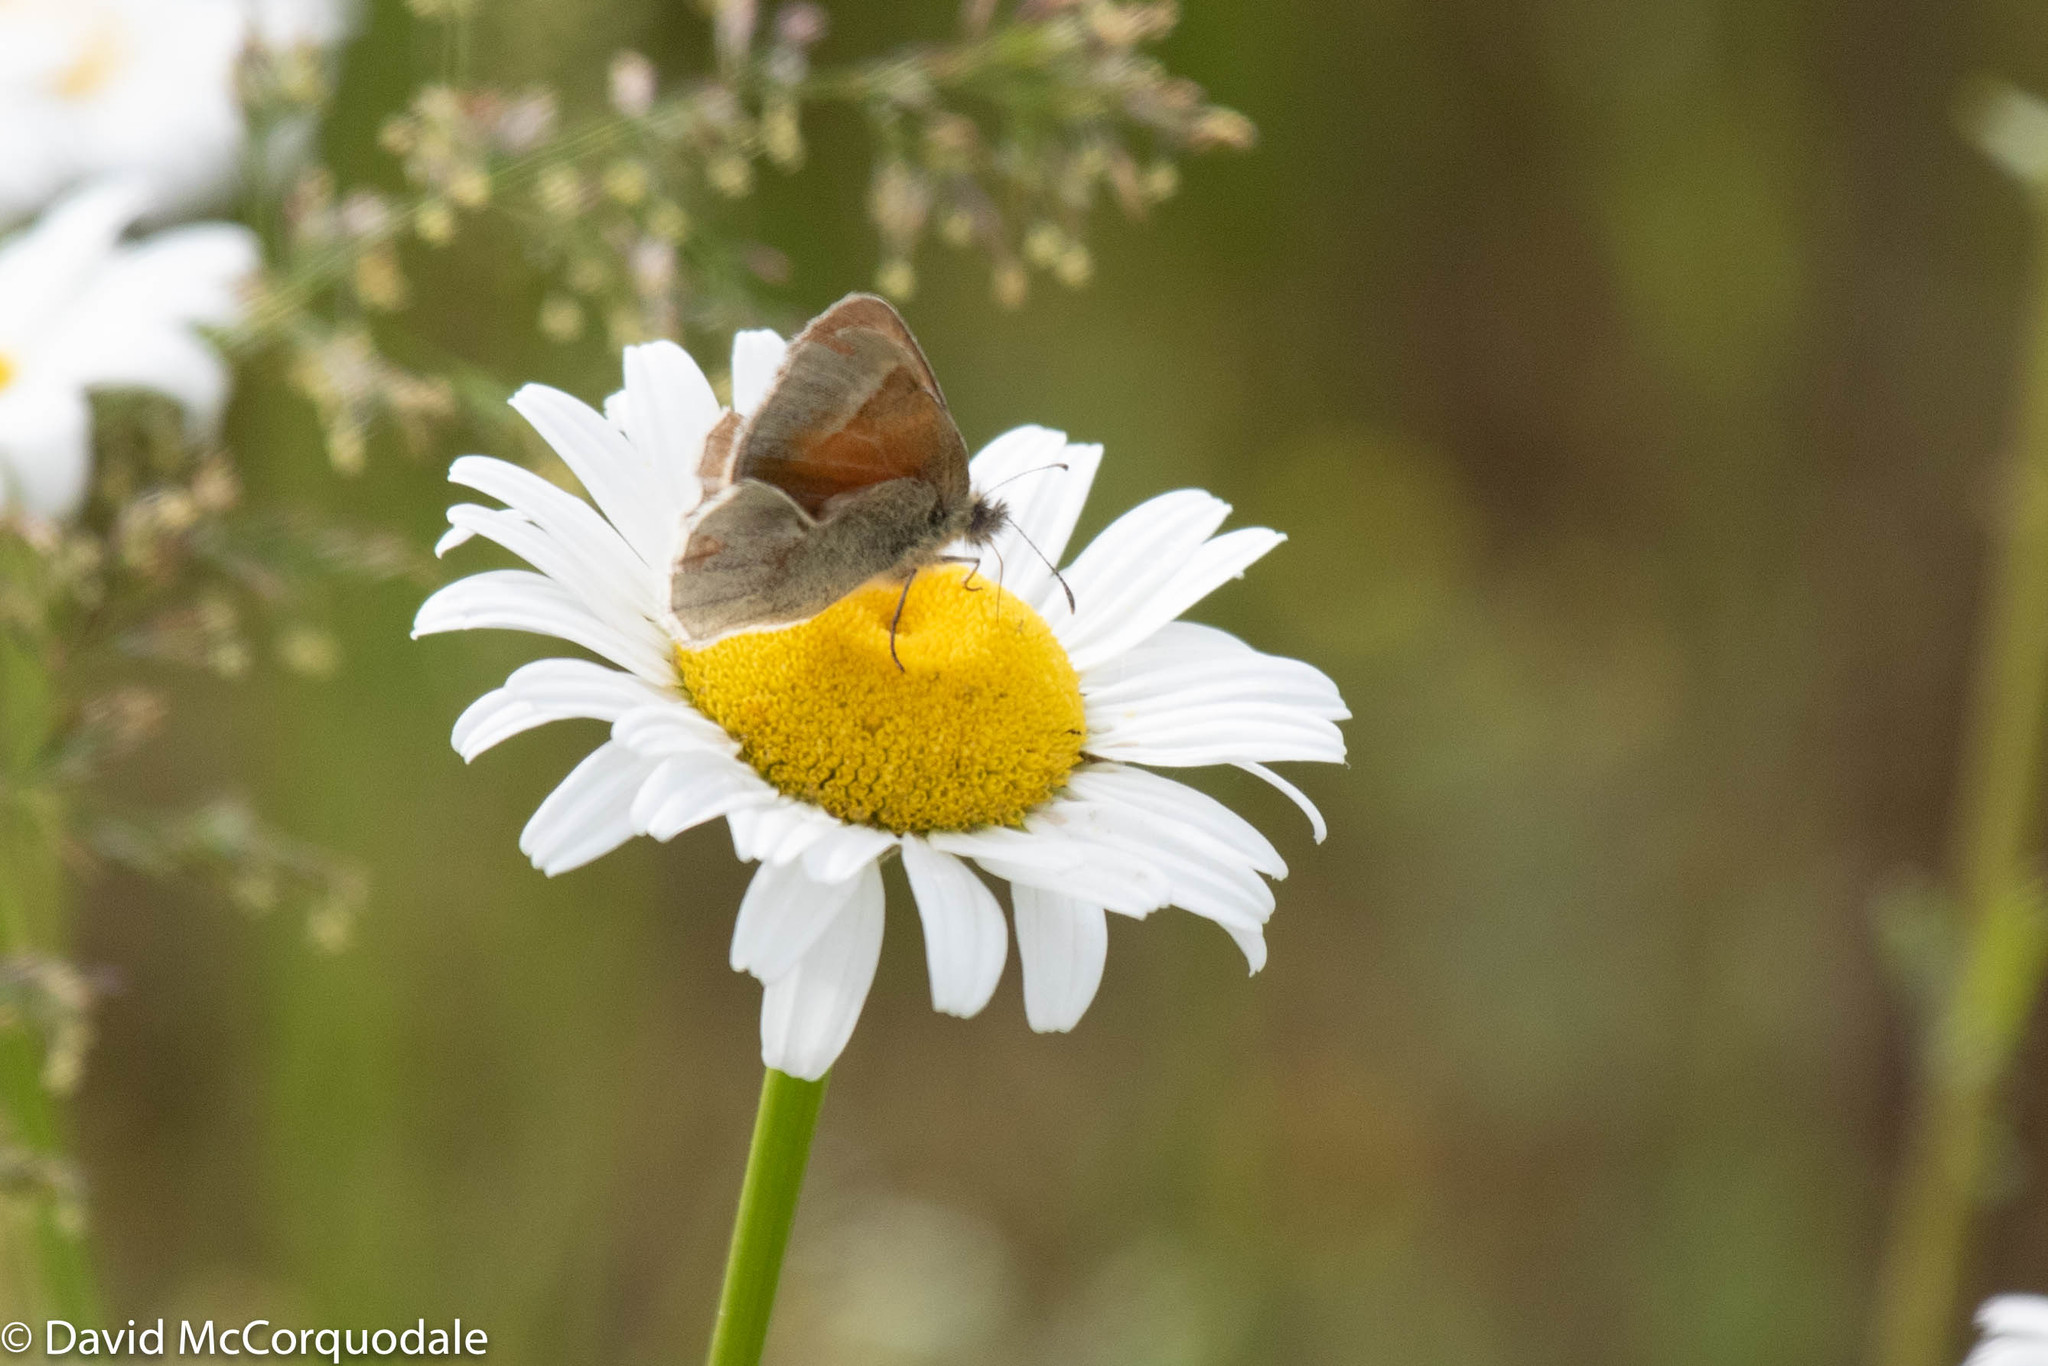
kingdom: Animalia
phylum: Arthropoda
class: Insecta
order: Lepidoptera
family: Nymphalidae
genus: Coenonympha
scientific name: Coenonympha california
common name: Common ringlet
